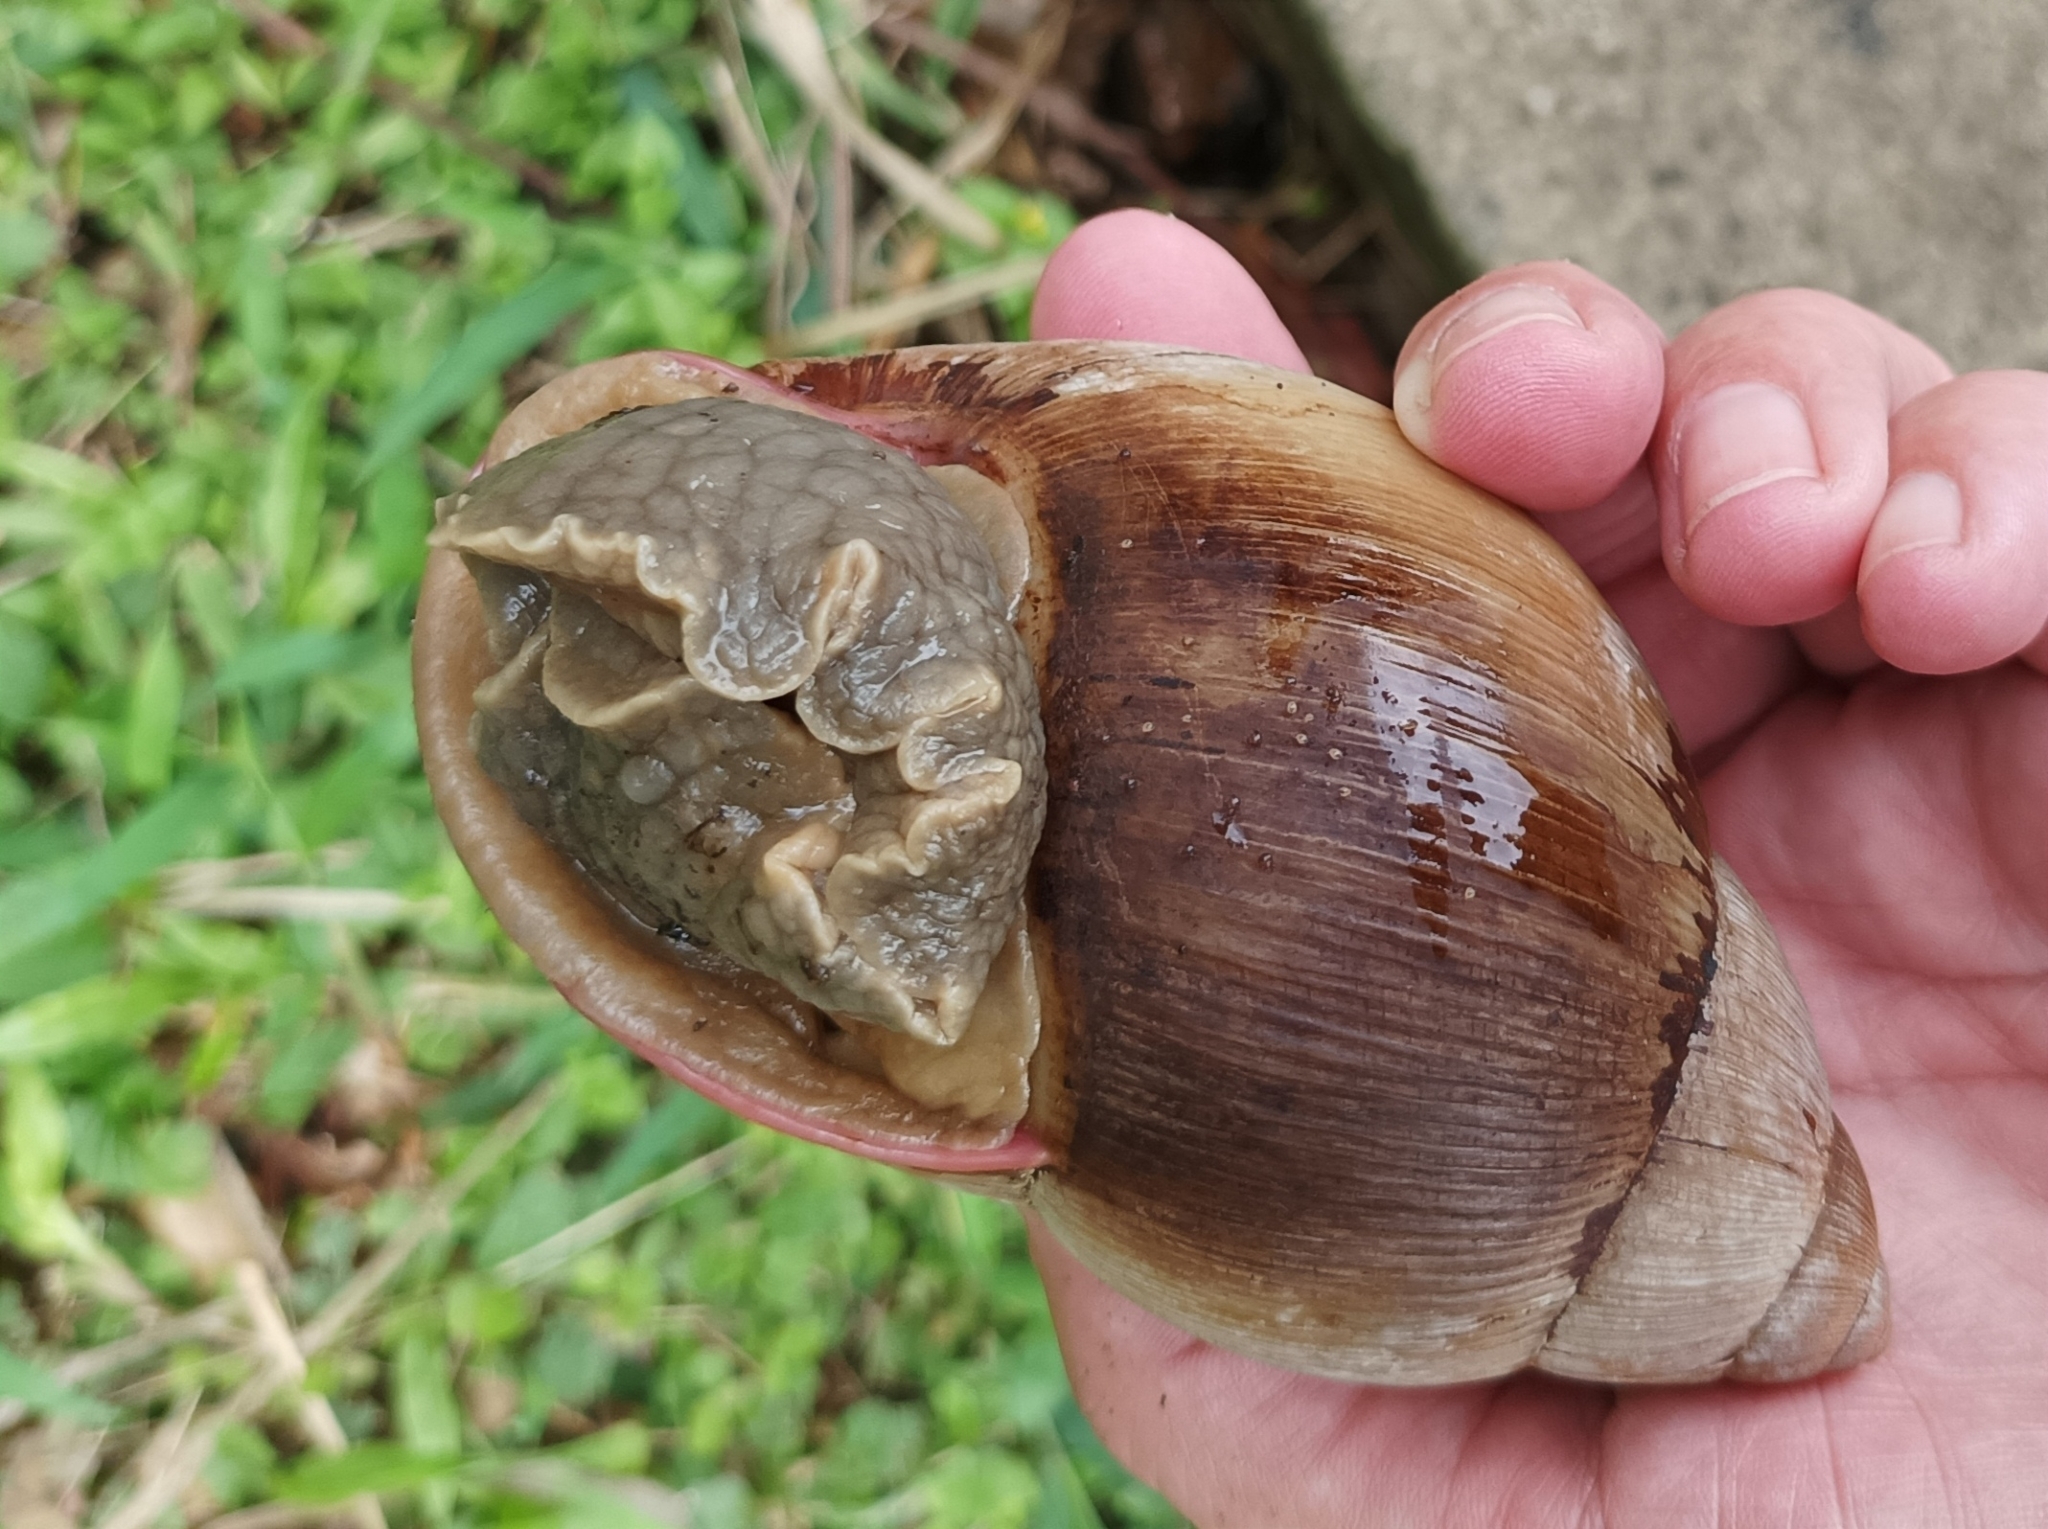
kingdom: Animalia
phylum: Mollusca
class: Gastropoda
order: Stylommatophora
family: Strophocheilidae
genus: Megalobulimus
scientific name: Megalobulimus oblongus
